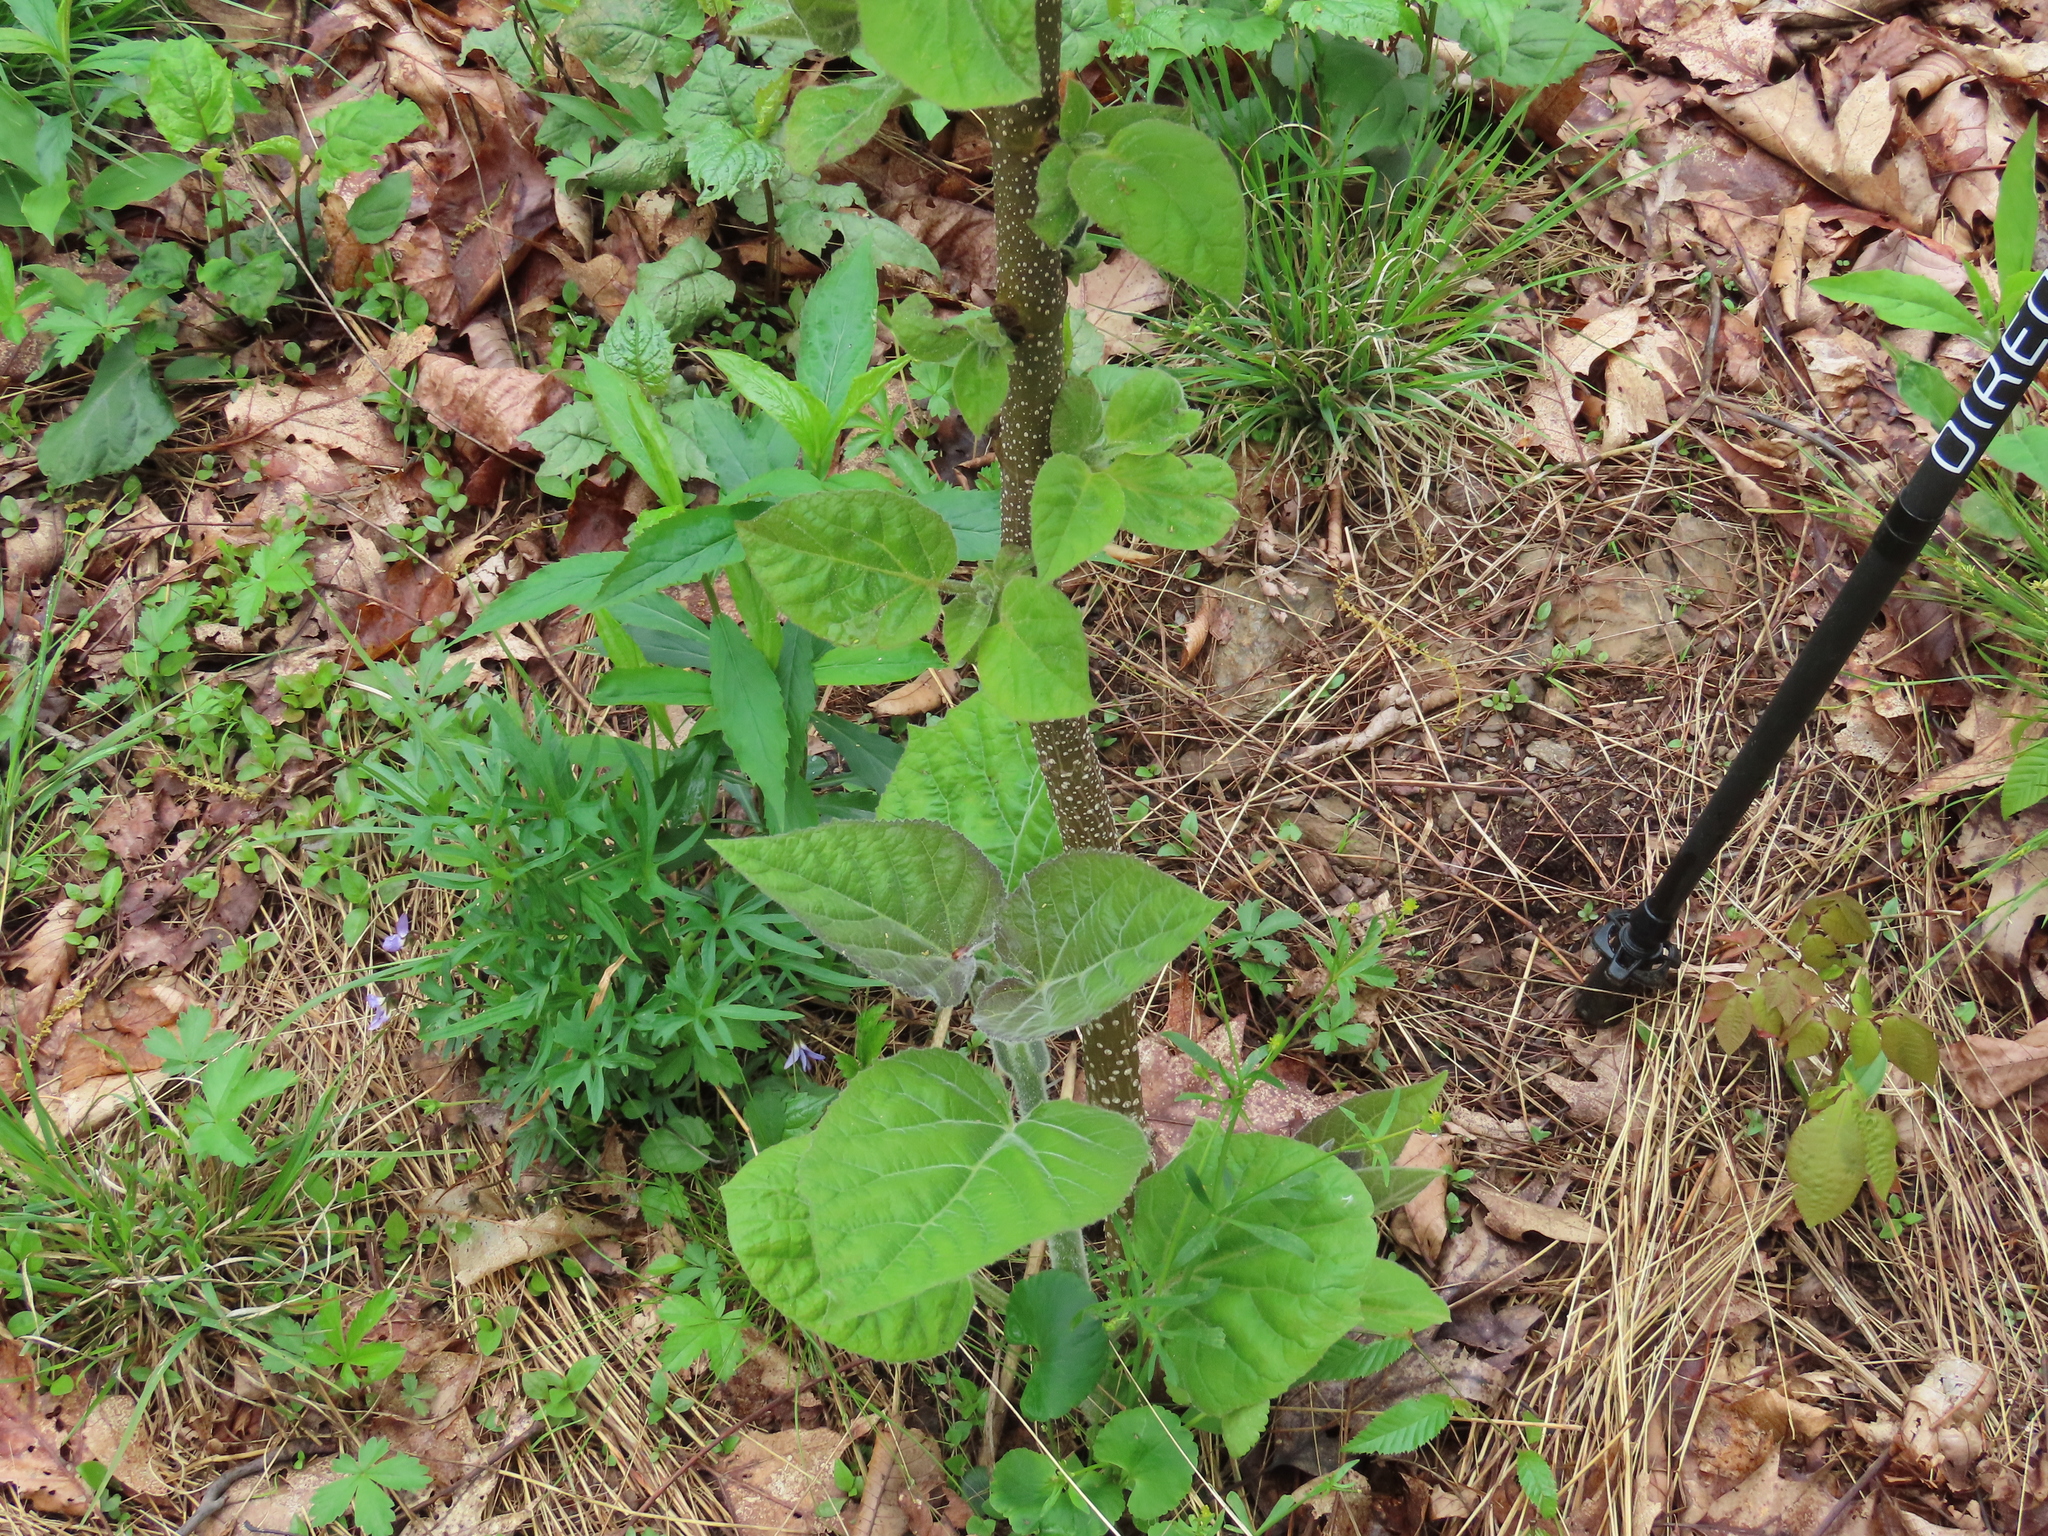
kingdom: Plantae
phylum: Tracheophyta
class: Magnoliopsida
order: Lamiales
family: Paulowniaceae
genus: Paulownia
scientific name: Paulownia tomentosa
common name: Foxglove-tree
